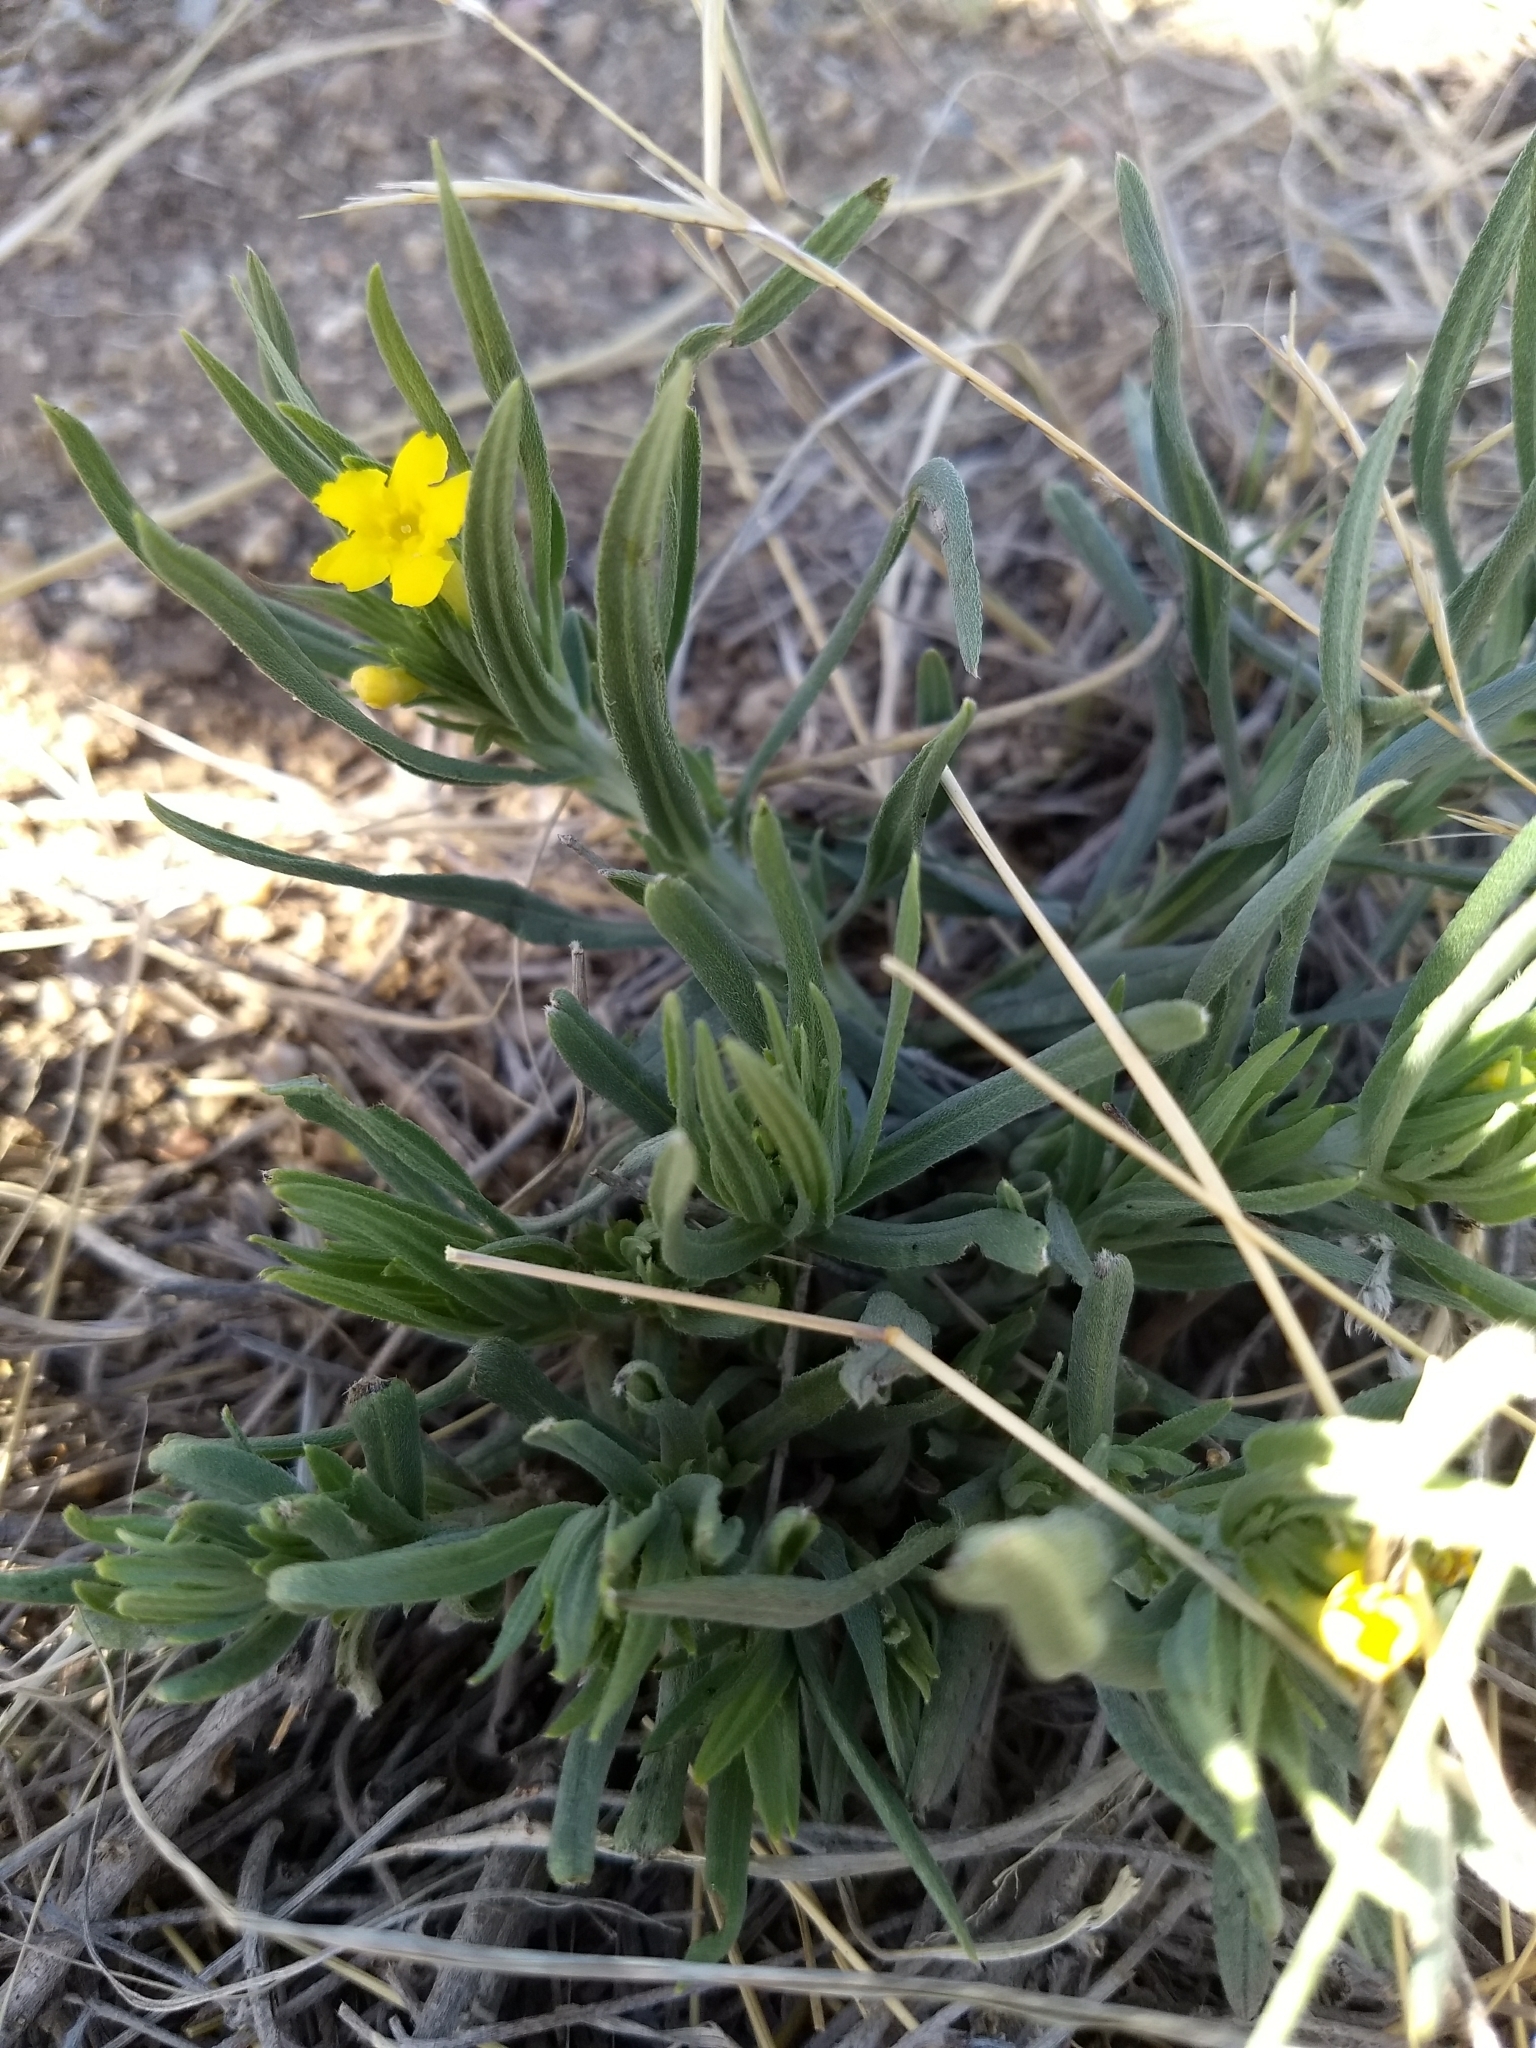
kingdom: Plantae
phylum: Tracheophyta
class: Magnoliopsida
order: Boraginales
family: Boraginaceae
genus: Lithospermum
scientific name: Lithospermum incisum
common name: Fringed gromwell
